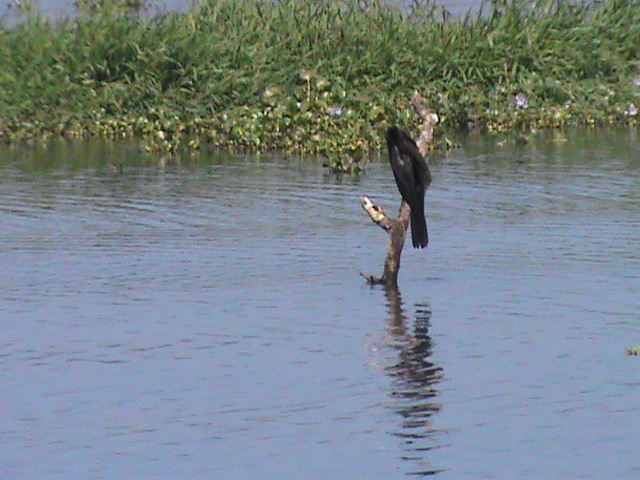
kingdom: Animalia
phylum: Chordata
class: Aves
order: Suliformes
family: Anhingidae
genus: Anhinga
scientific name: Anhinga melanogaster
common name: Oriental darter
